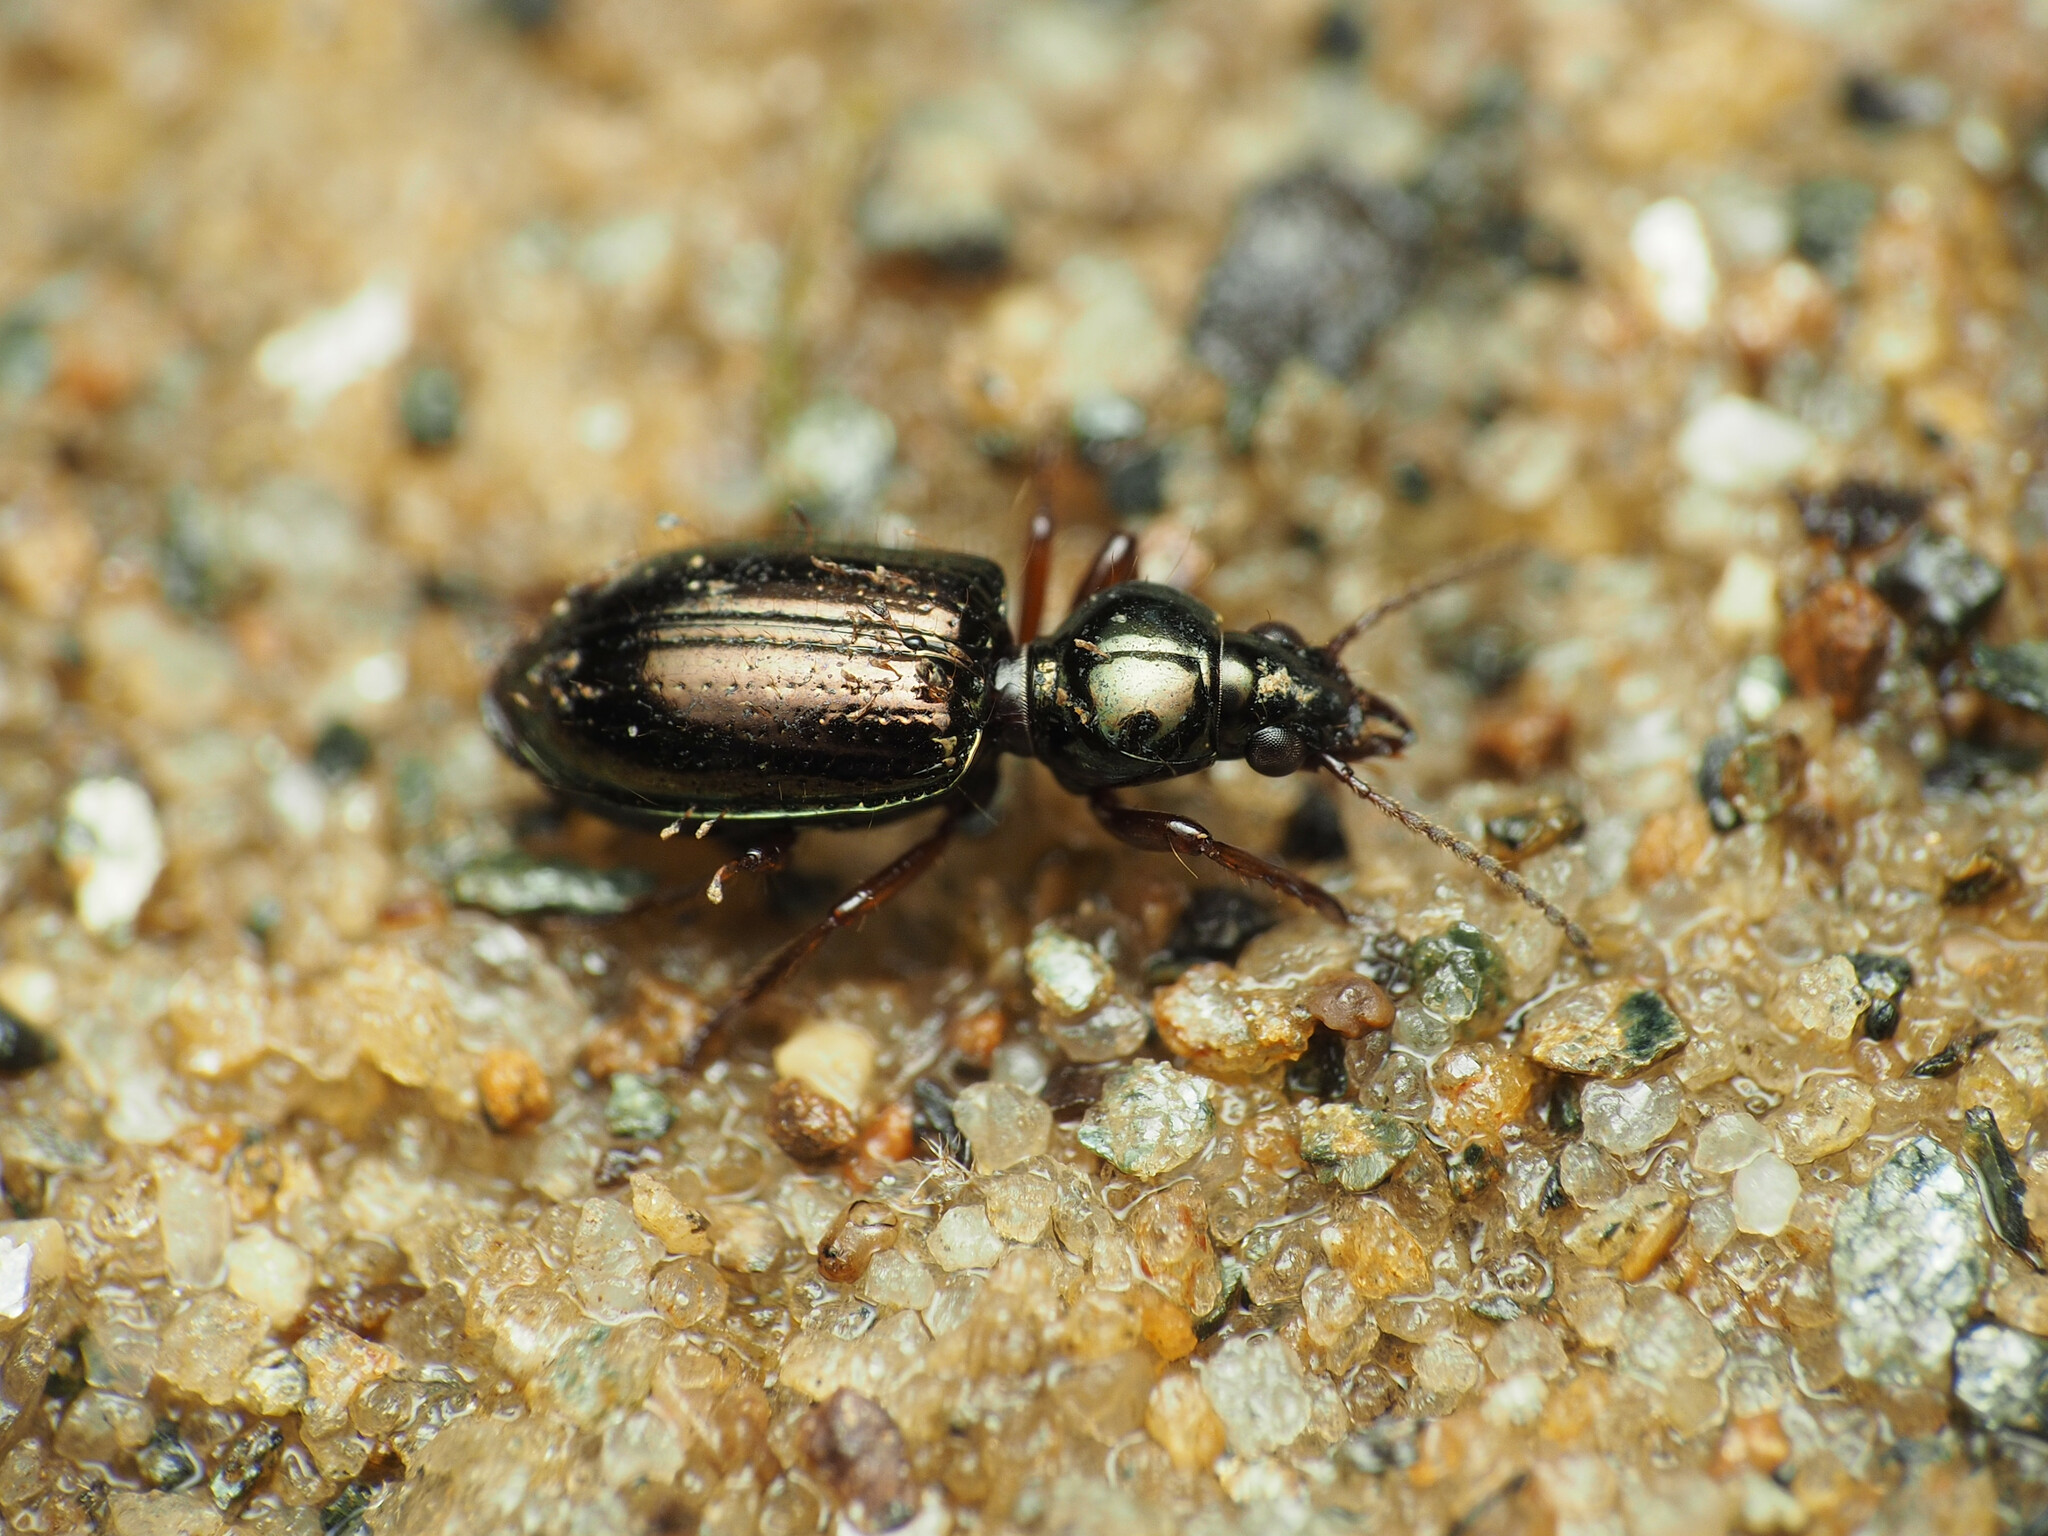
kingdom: Animalia
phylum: Arthropoda
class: Insecta
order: Coleoptera
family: Carabidae
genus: Semiardistomis
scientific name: Semiardistomis viridis
